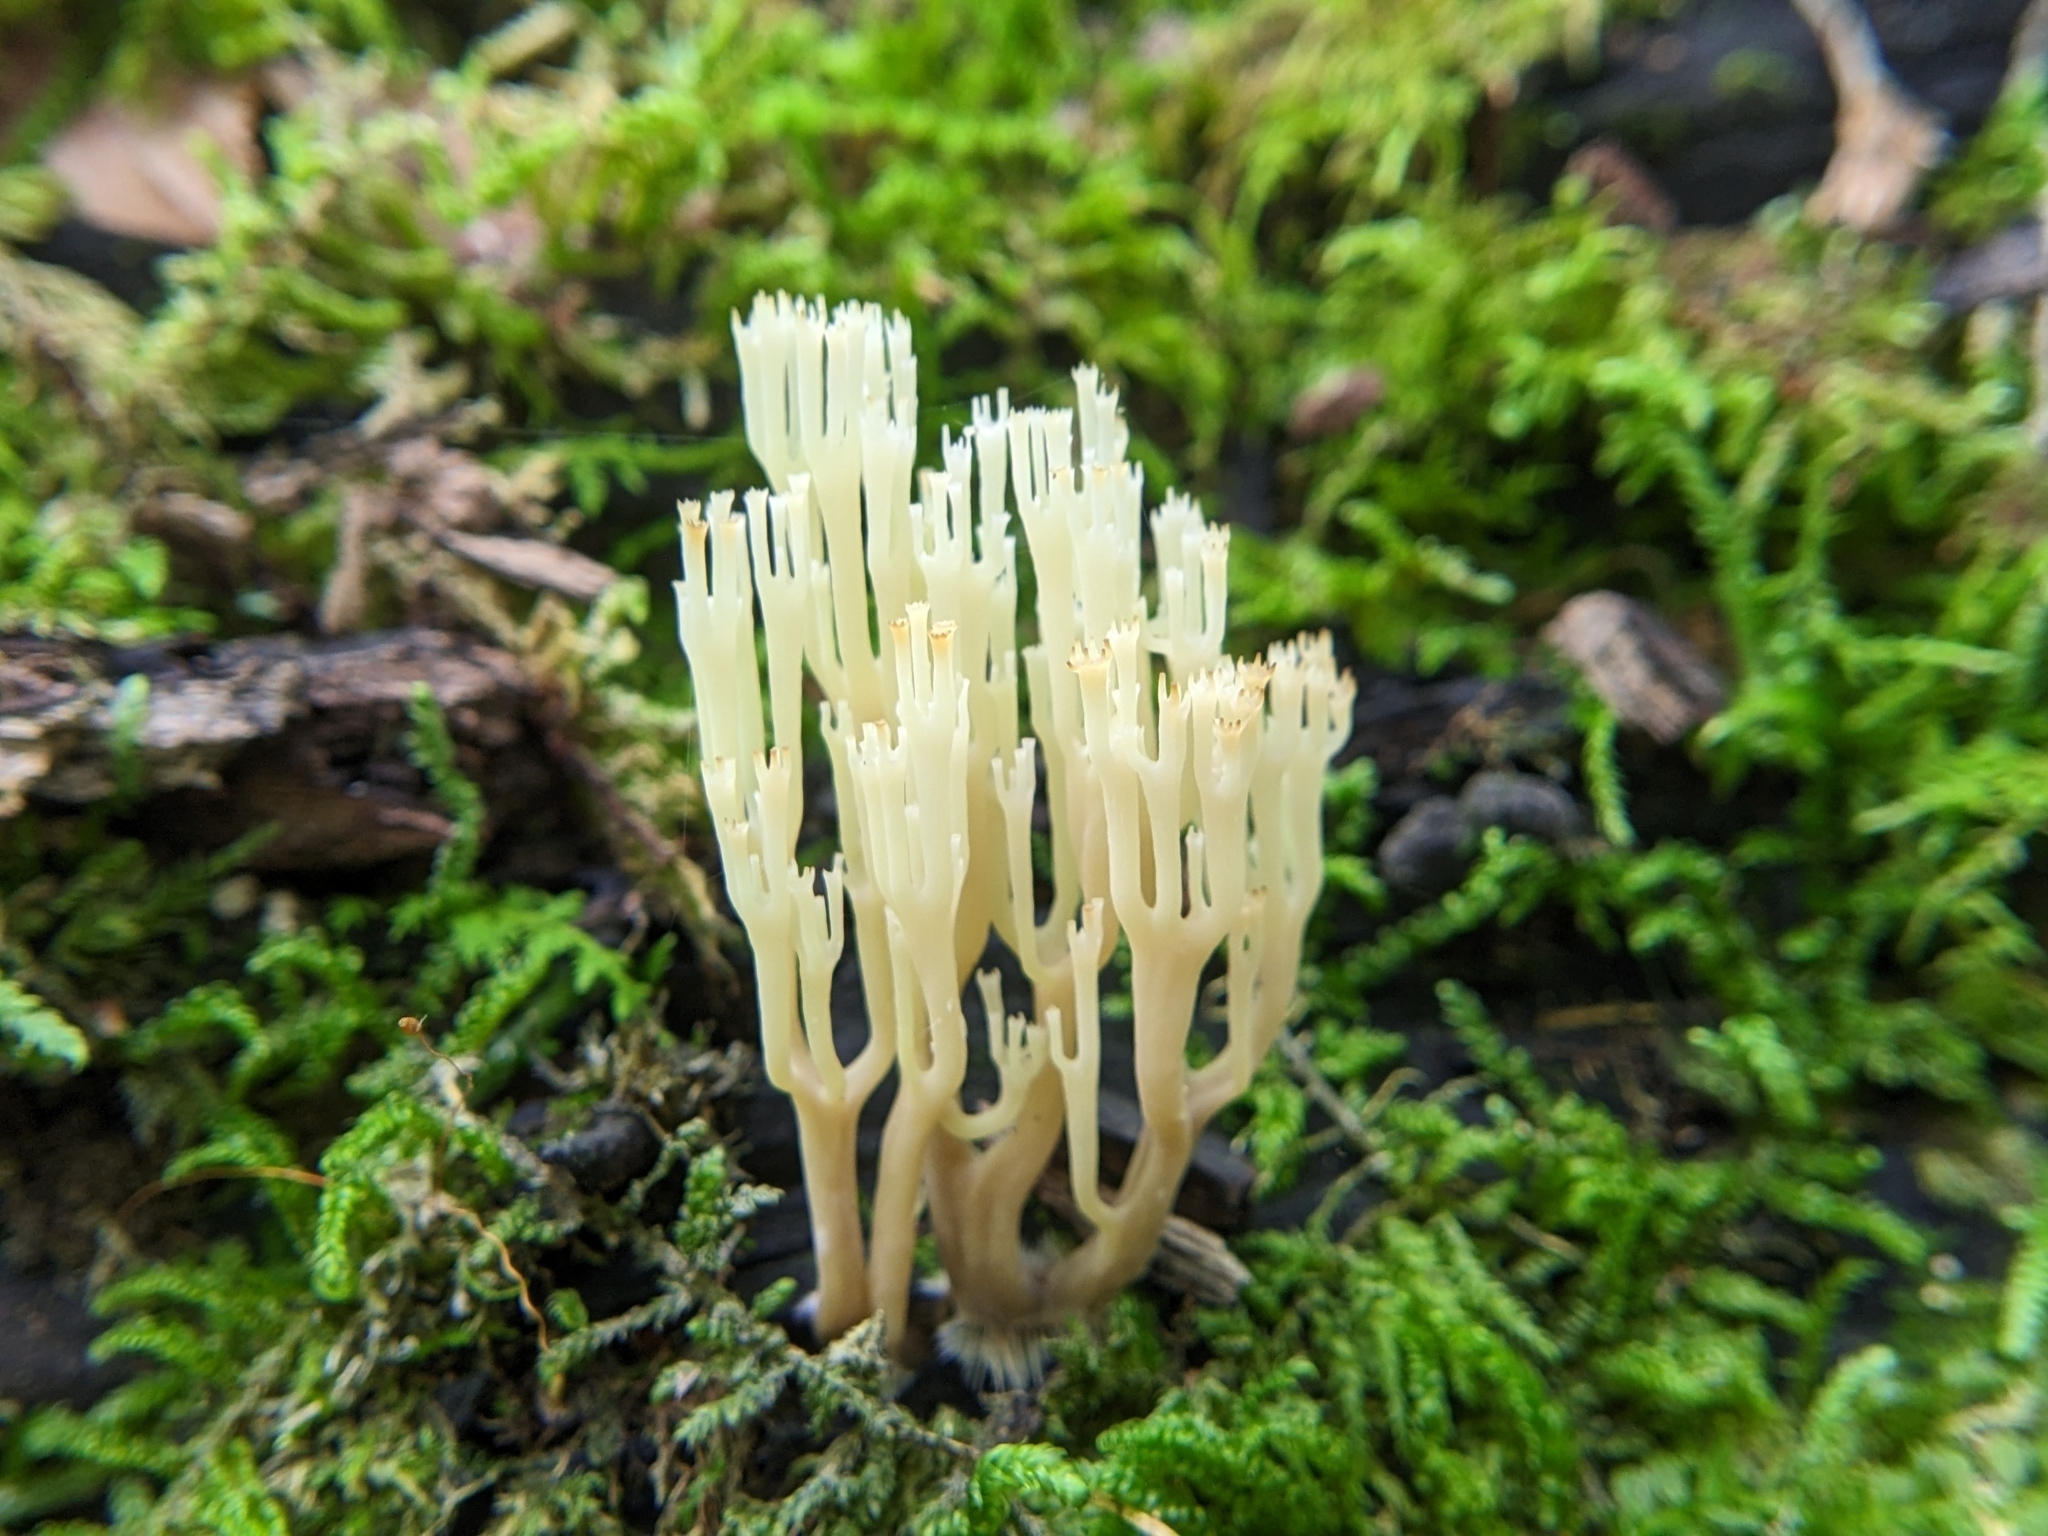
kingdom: Fungi
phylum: Basidiomycota
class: Agaricomycetes
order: Russulales
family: Auriscalpiaceae
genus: Artomyces
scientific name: Artomyces pyxidatus
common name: Crown-tipped coral fungus
